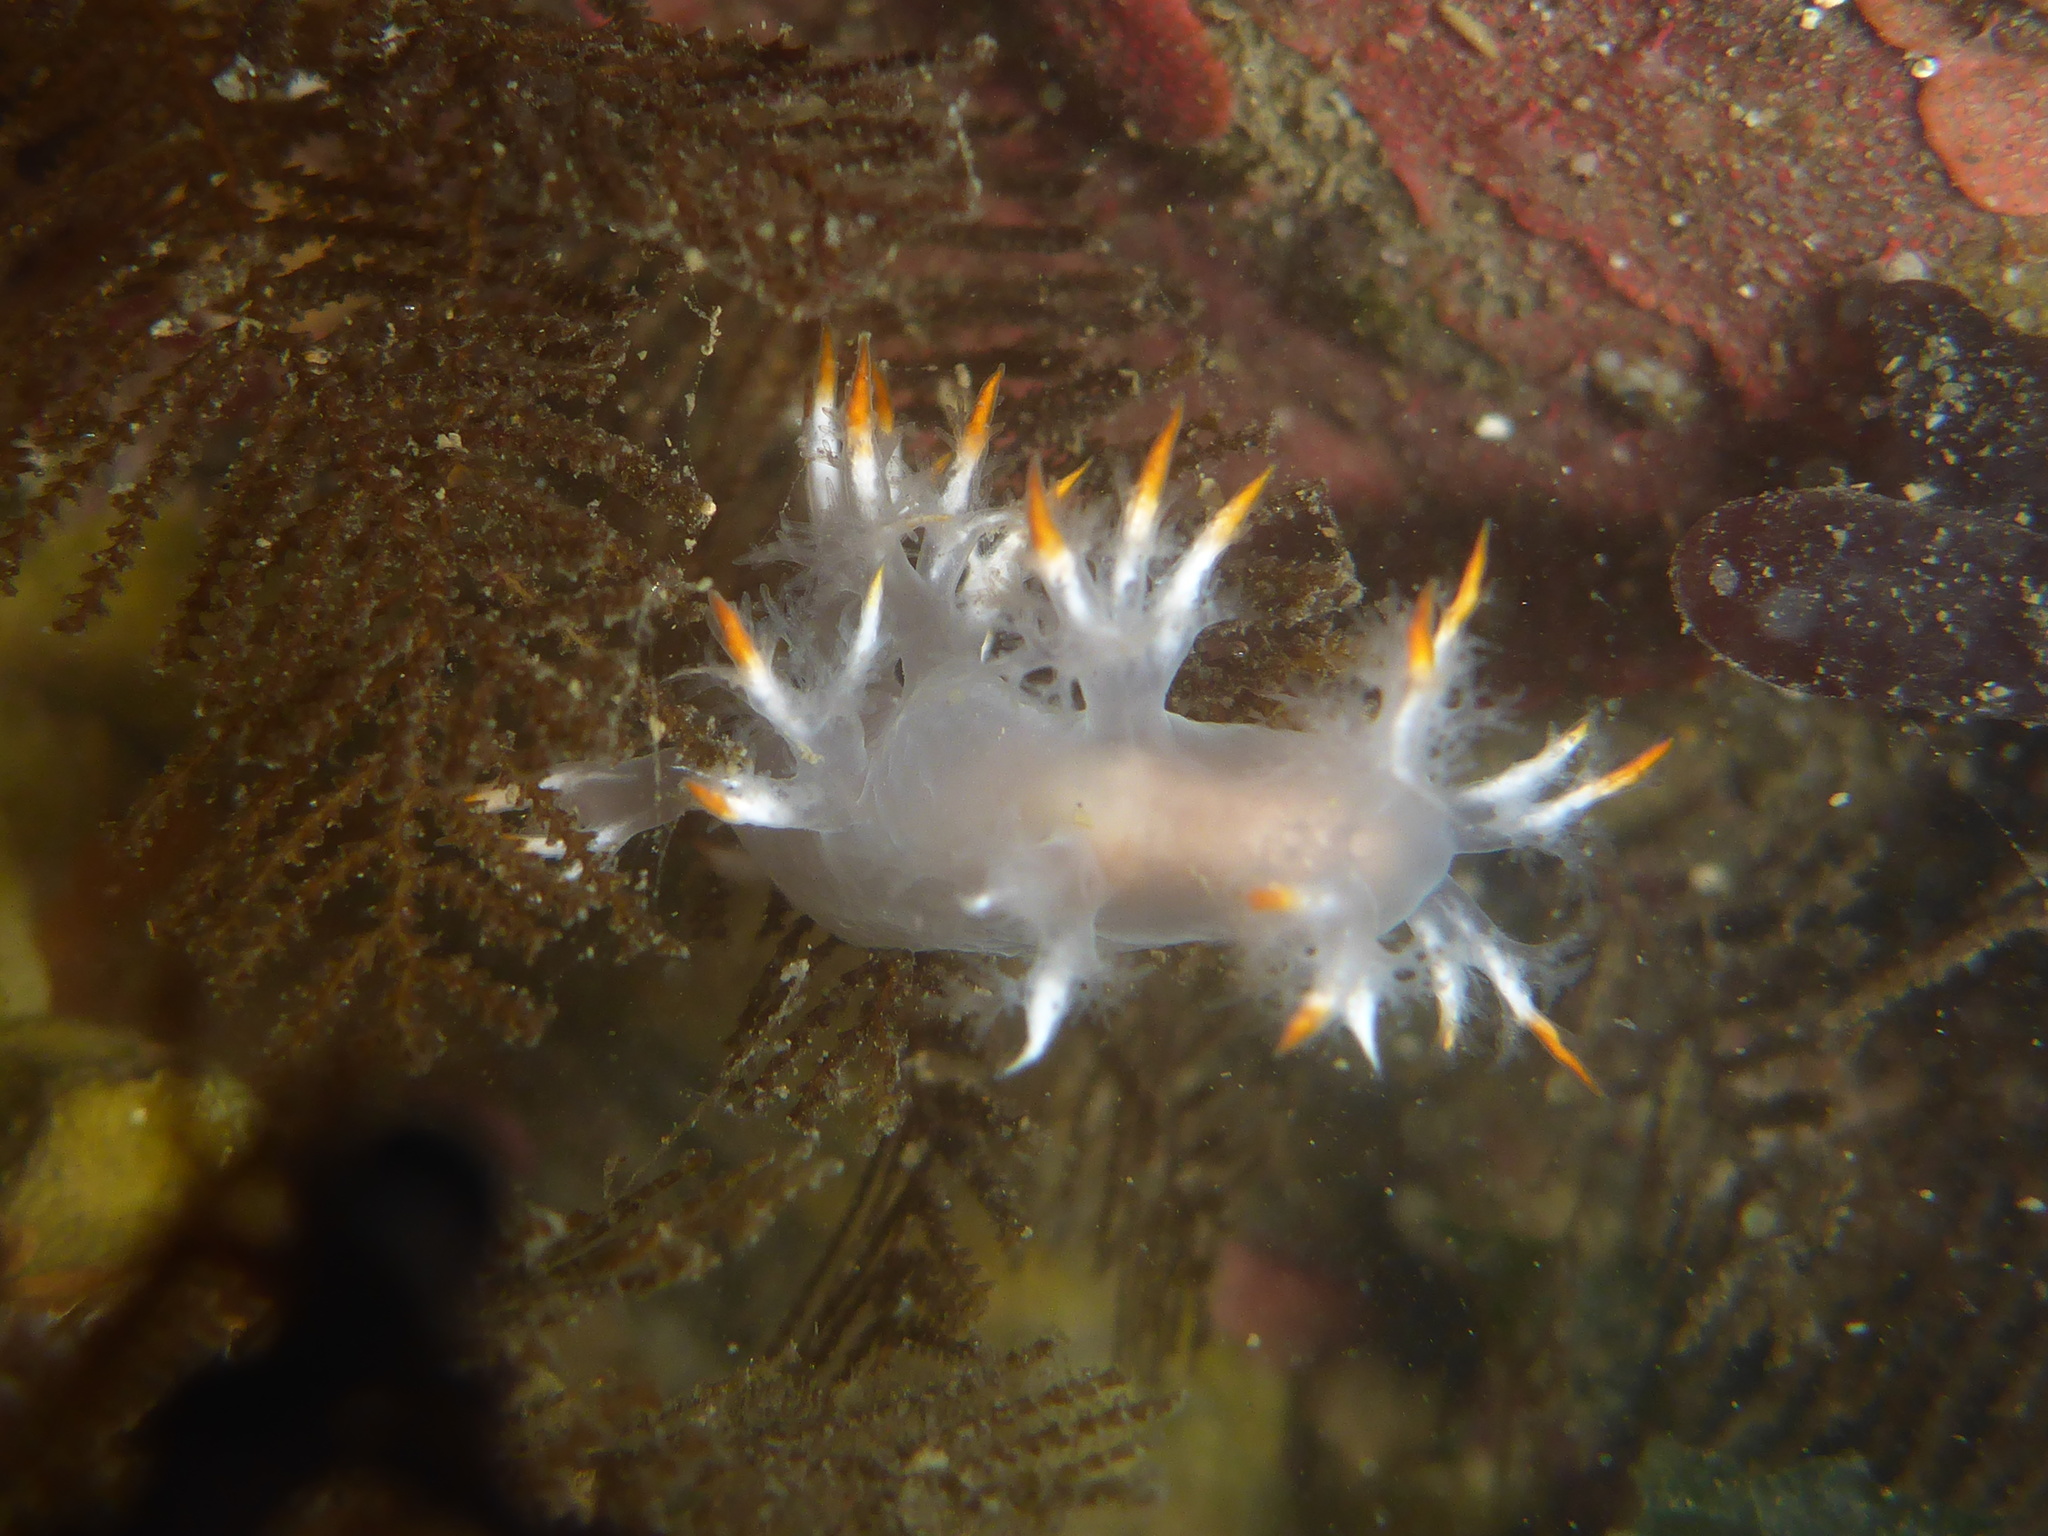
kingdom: Animalia
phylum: Mollusca
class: Gastropoda
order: Nudibranchia
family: Dendronotidae
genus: Dendronotus
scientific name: Dendronotus albus
